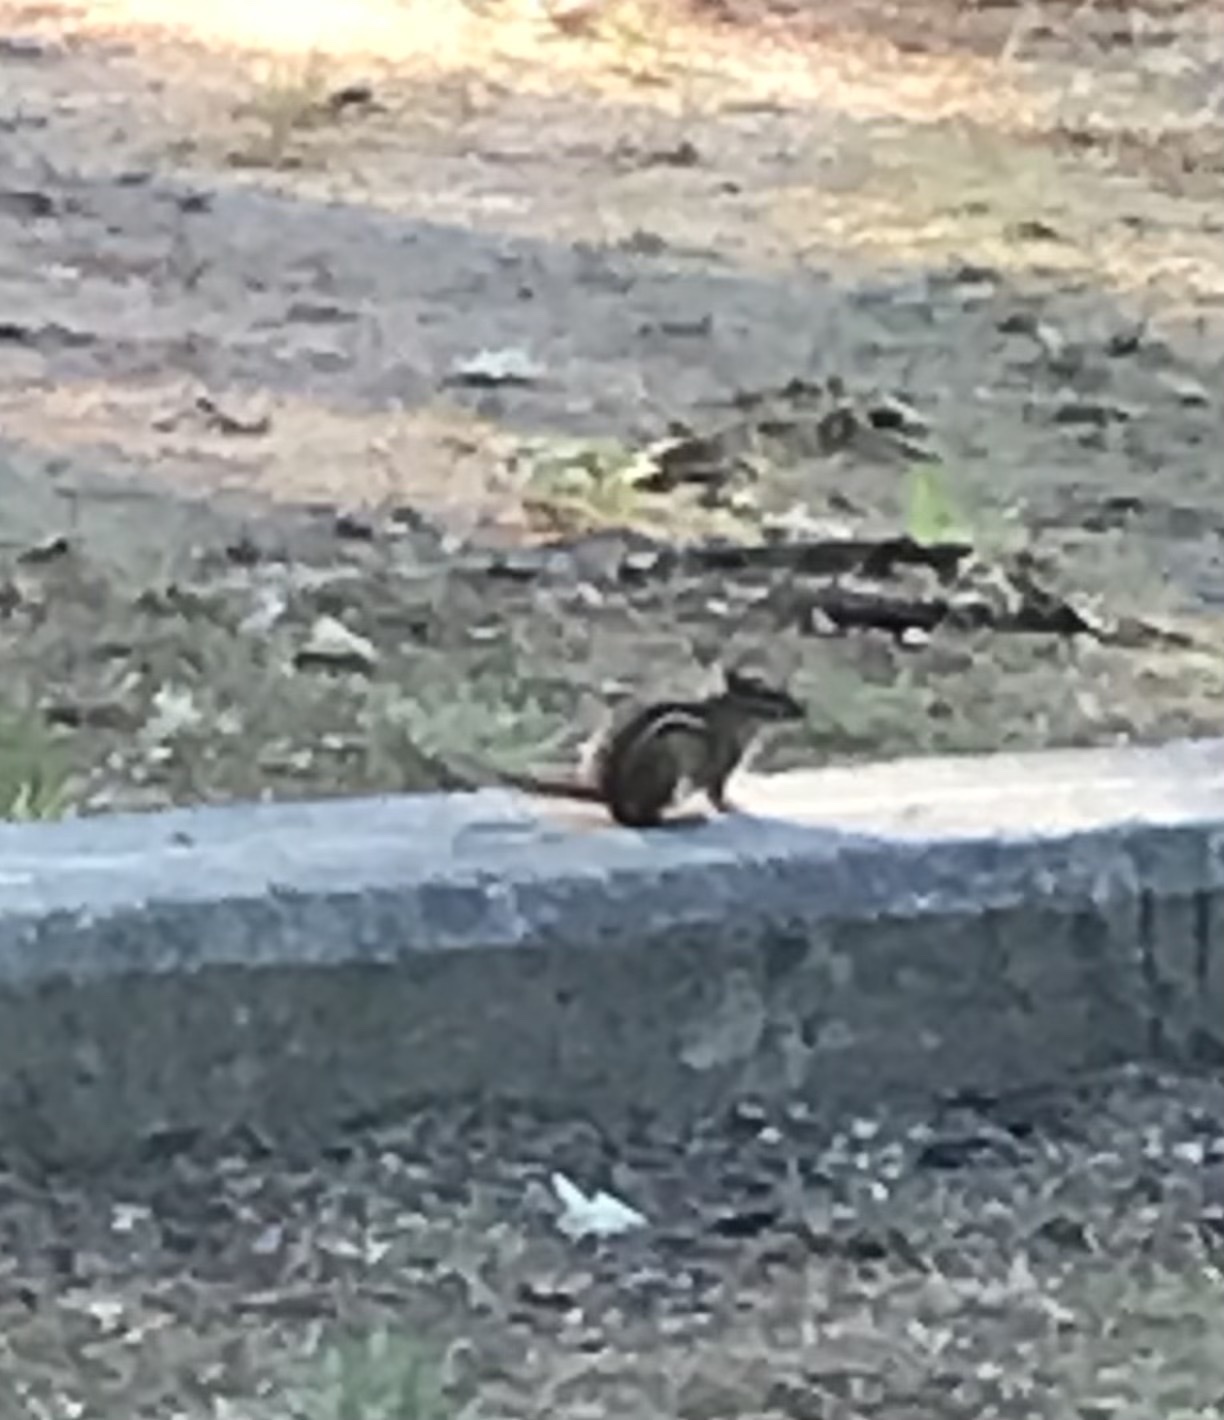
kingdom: Animalia
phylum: Chordata
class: Mammalia
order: Rodentia
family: Sciuridae
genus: Tamias
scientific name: Tamias striatus
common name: Eastern chipmunk
